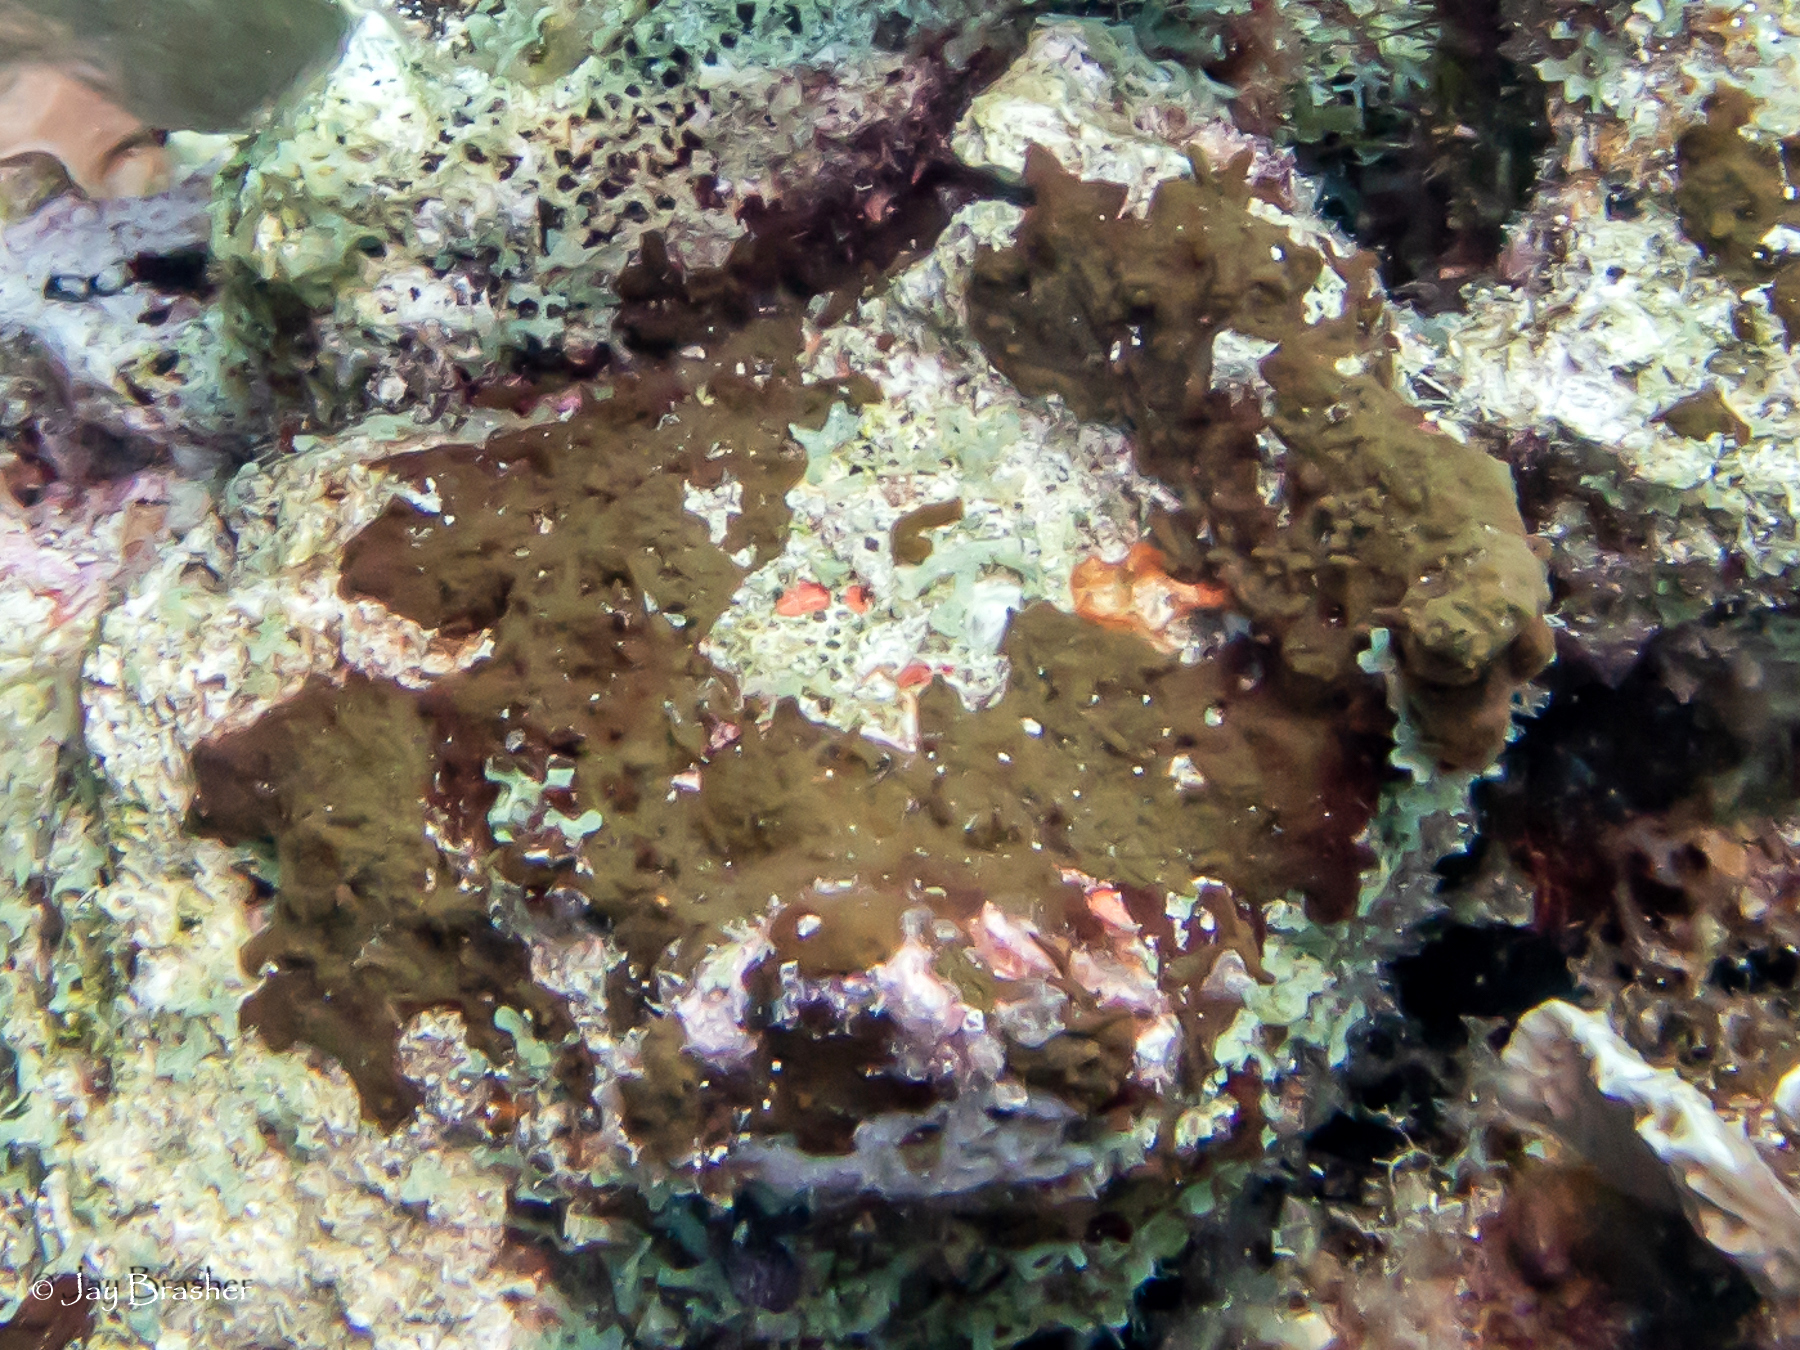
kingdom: Animalia
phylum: Porifera
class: Demospongiae
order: Bubarida
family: Dictyonellidae
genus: Dictyonella
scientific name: Dictyonella funicularis
